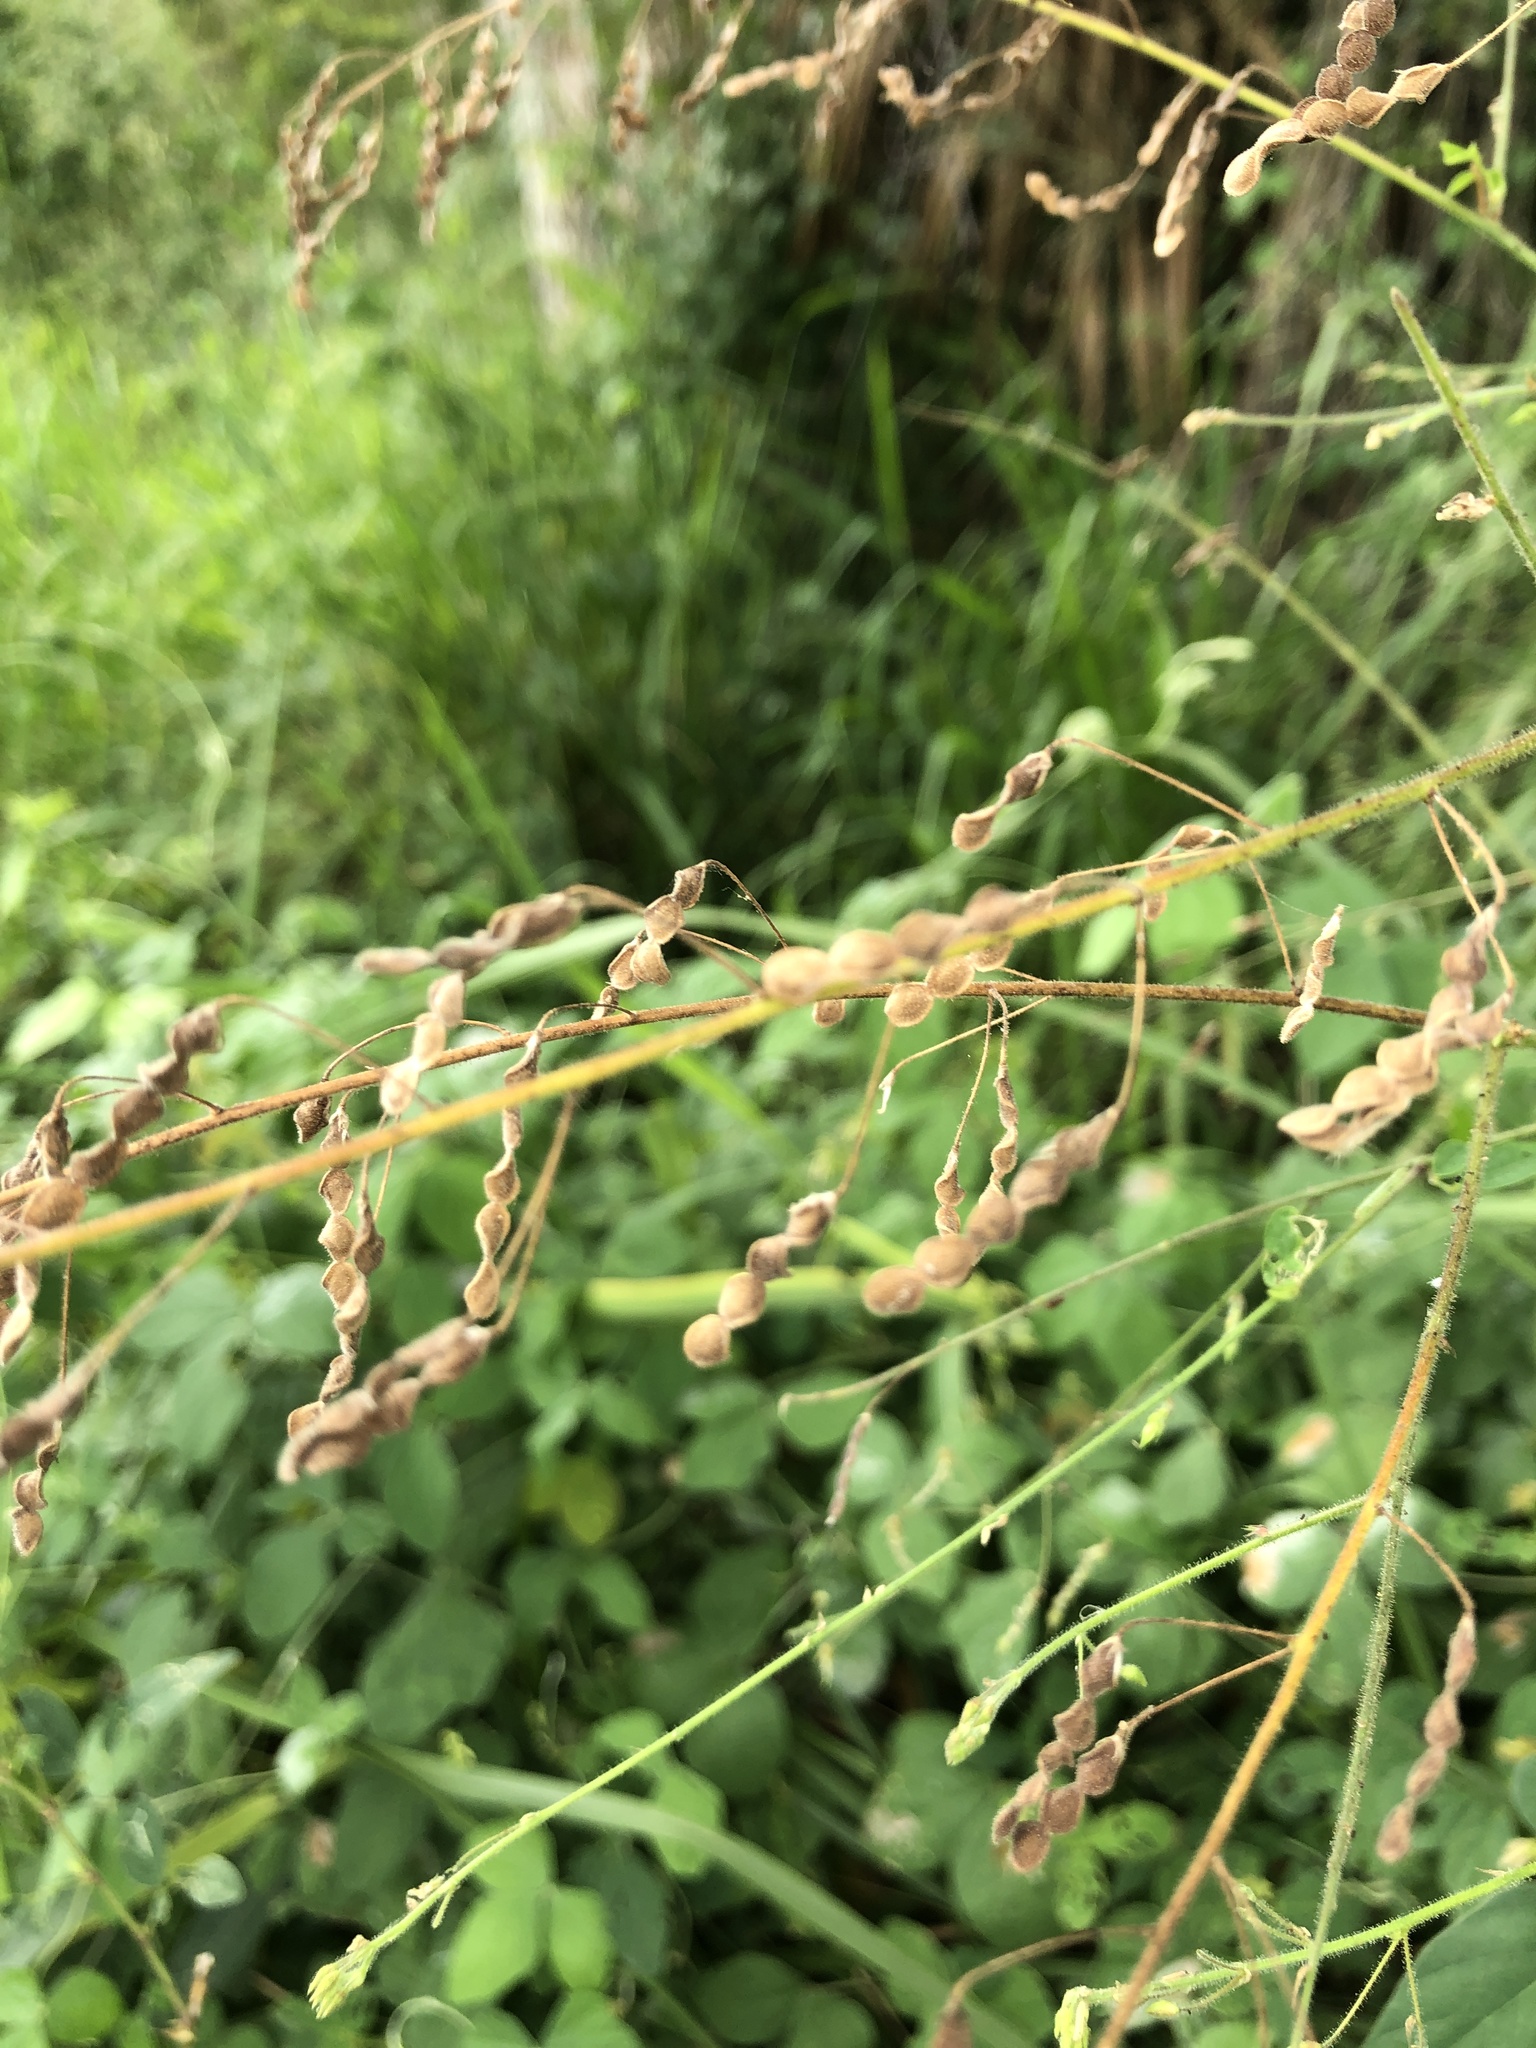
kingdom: Plantae
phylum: Tracheophyta
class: Magnoliopsida
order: Fabales
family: Fabaceae
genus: Desmodium
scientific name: Desmodium tortuosum
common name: Dixie ticktrefoil
